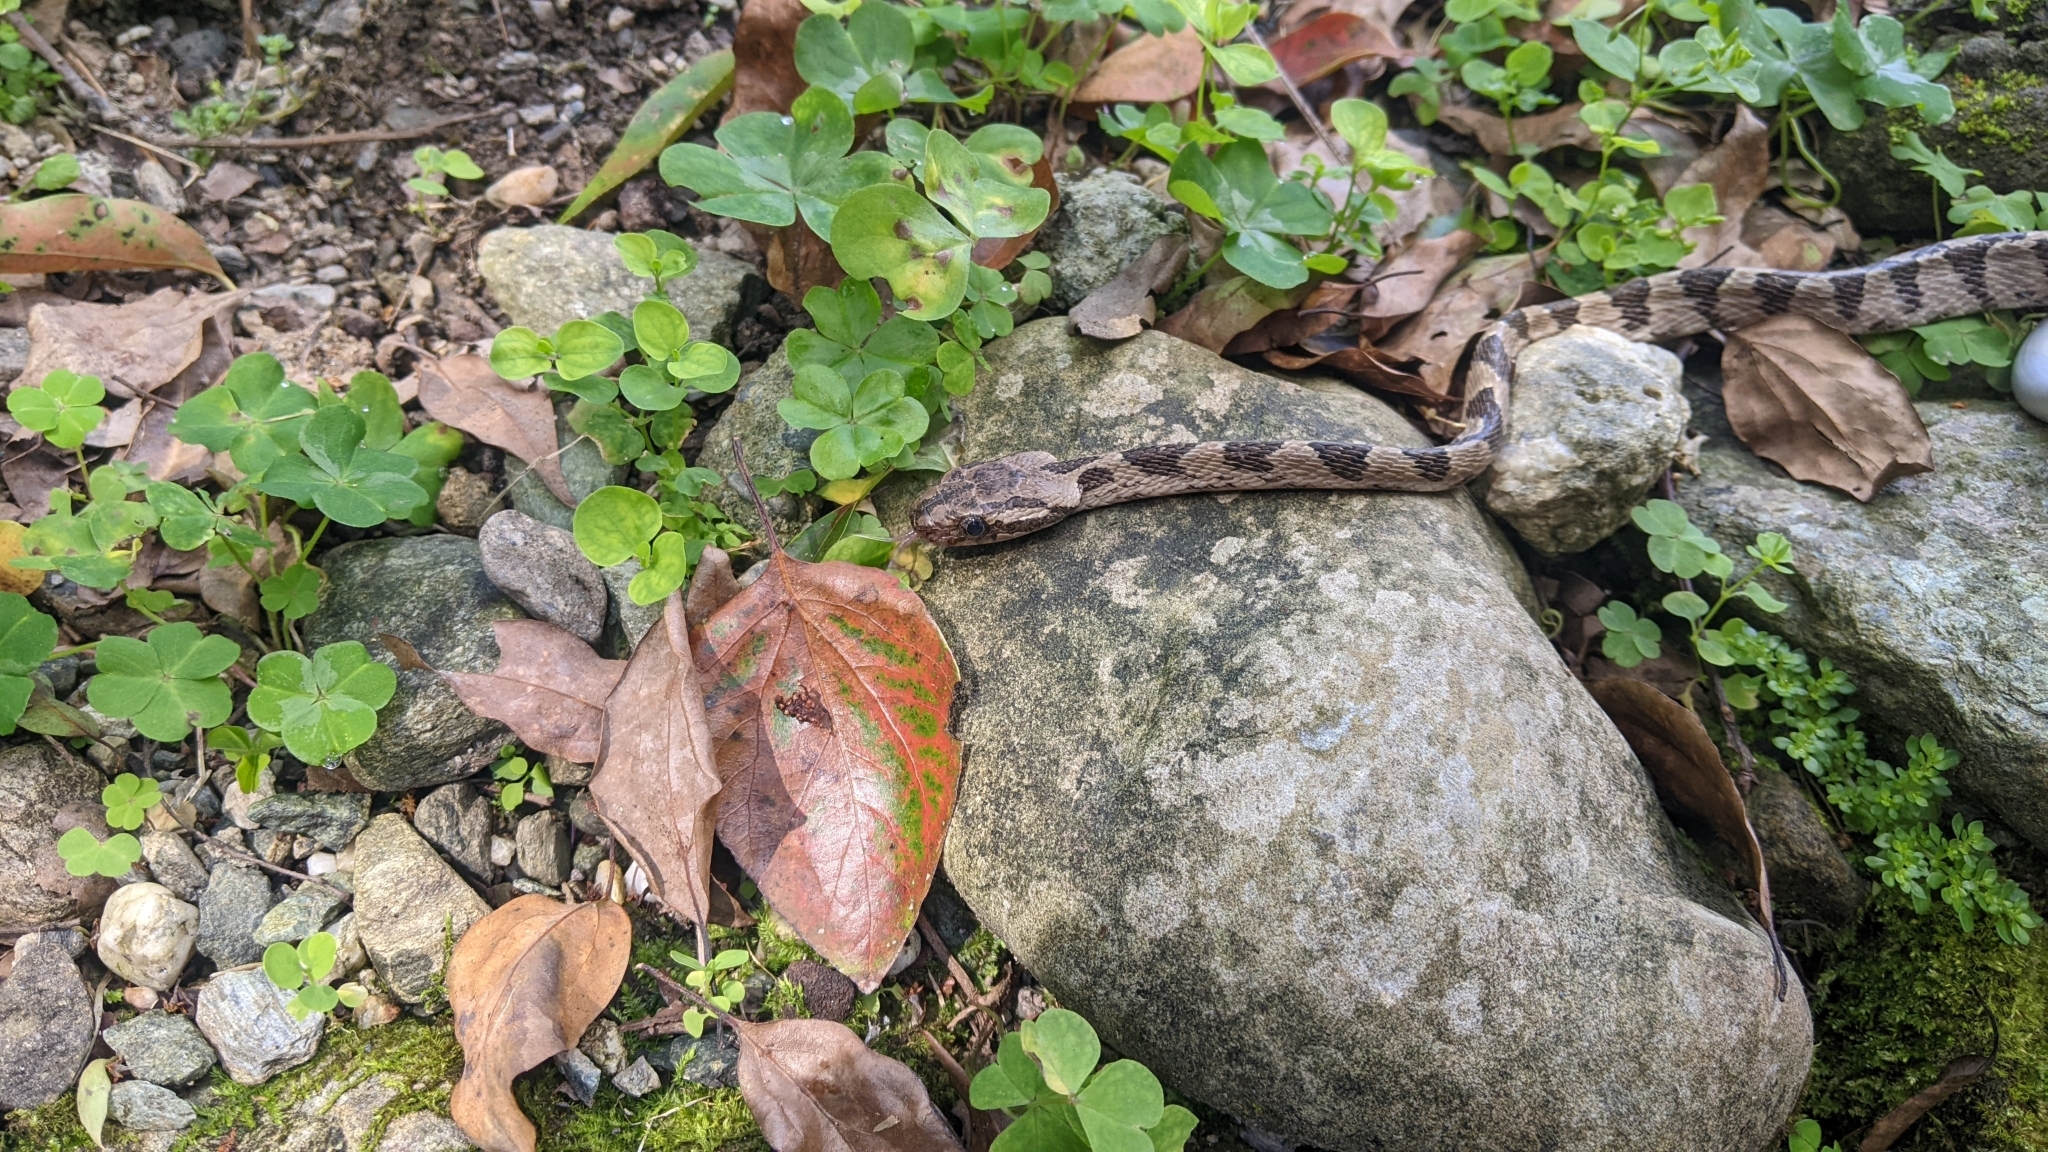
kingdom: Animalia
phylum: Chordata
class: Squamata
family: Colubridae
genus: Boiga
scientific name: Boiga kraepelini
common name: Kelung cat snake
